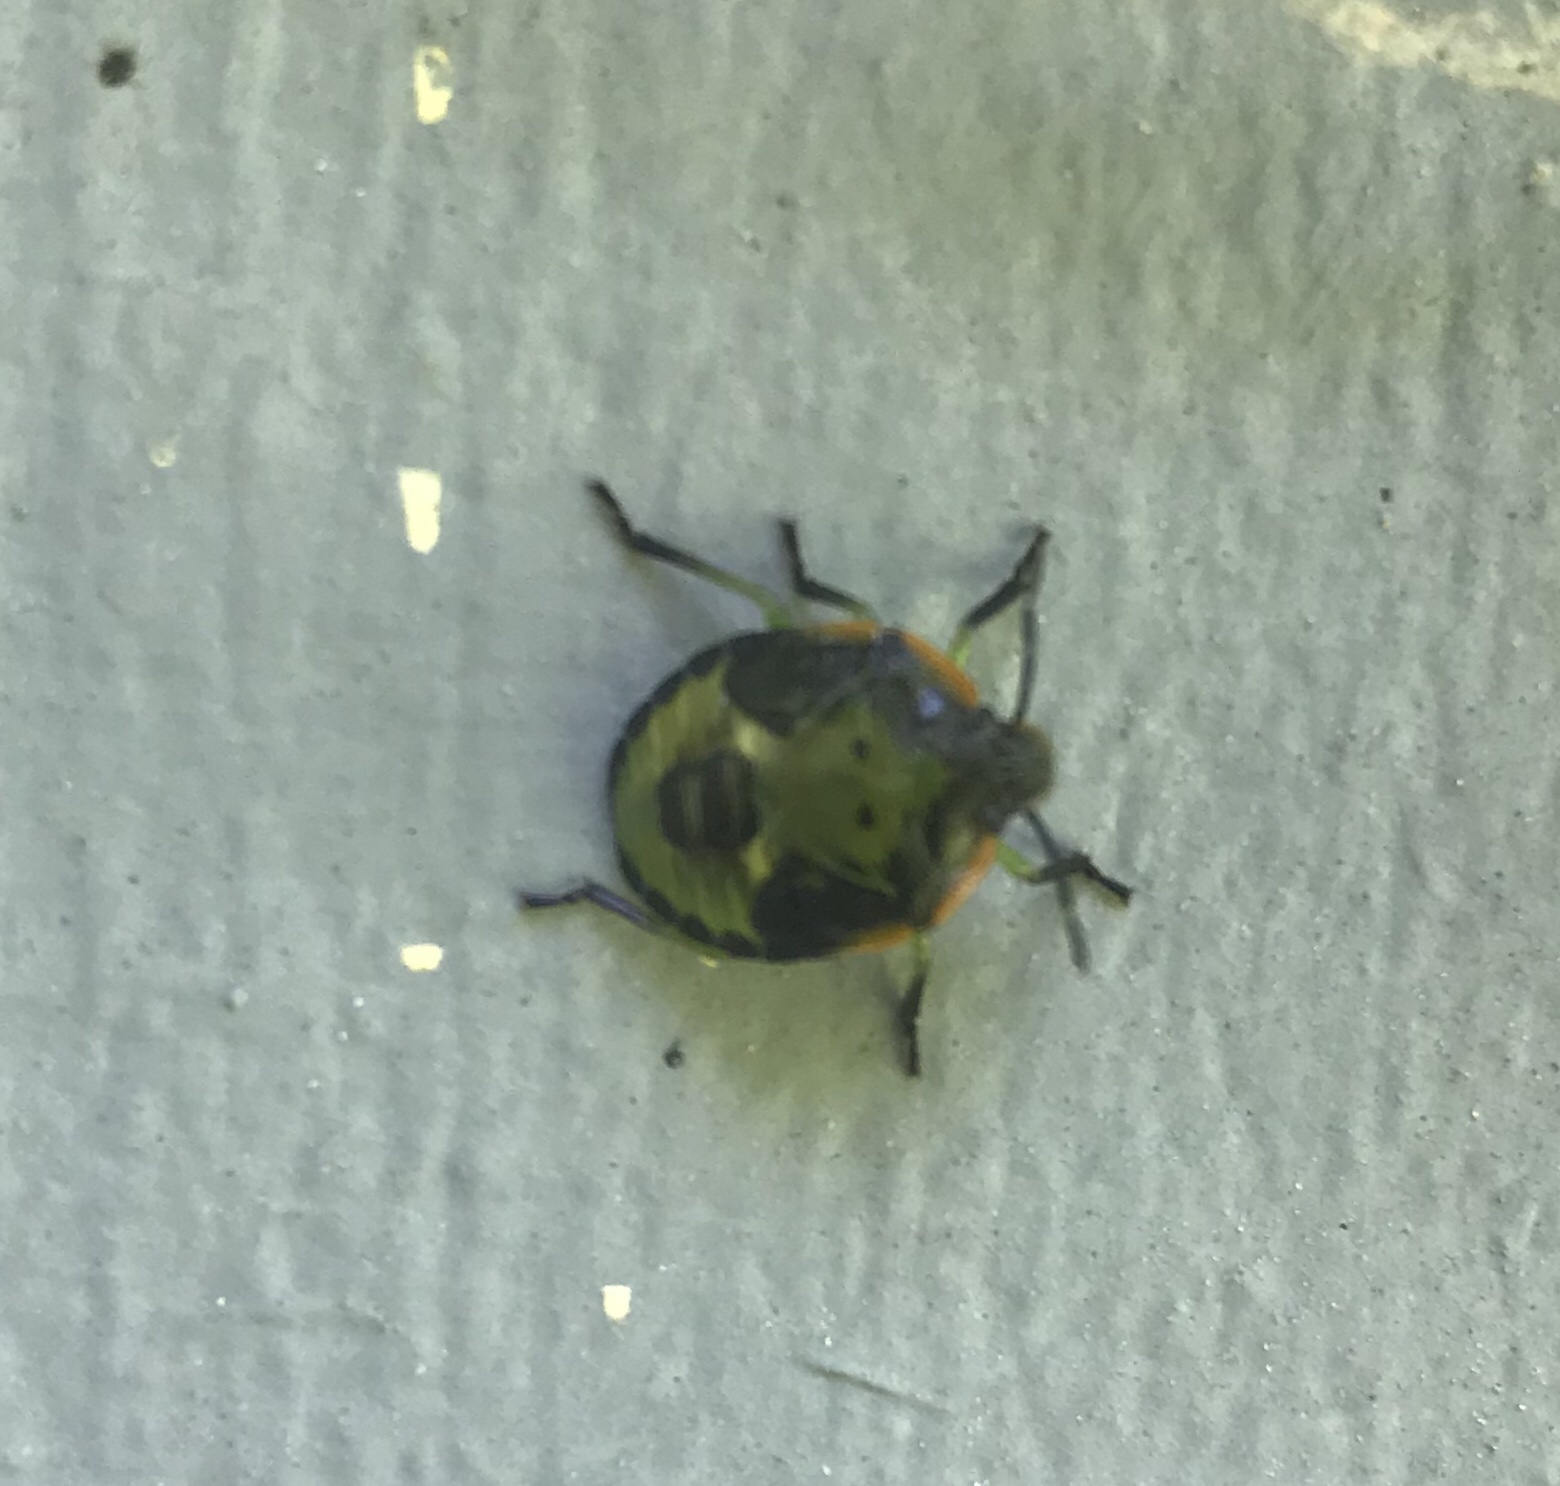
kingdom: Animalia
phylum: Arthropoda
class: Insecta
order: Hemiptera
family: Pentatomidae
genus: Chinavia
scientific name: Chinavia hilaris
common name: Green stink bug
